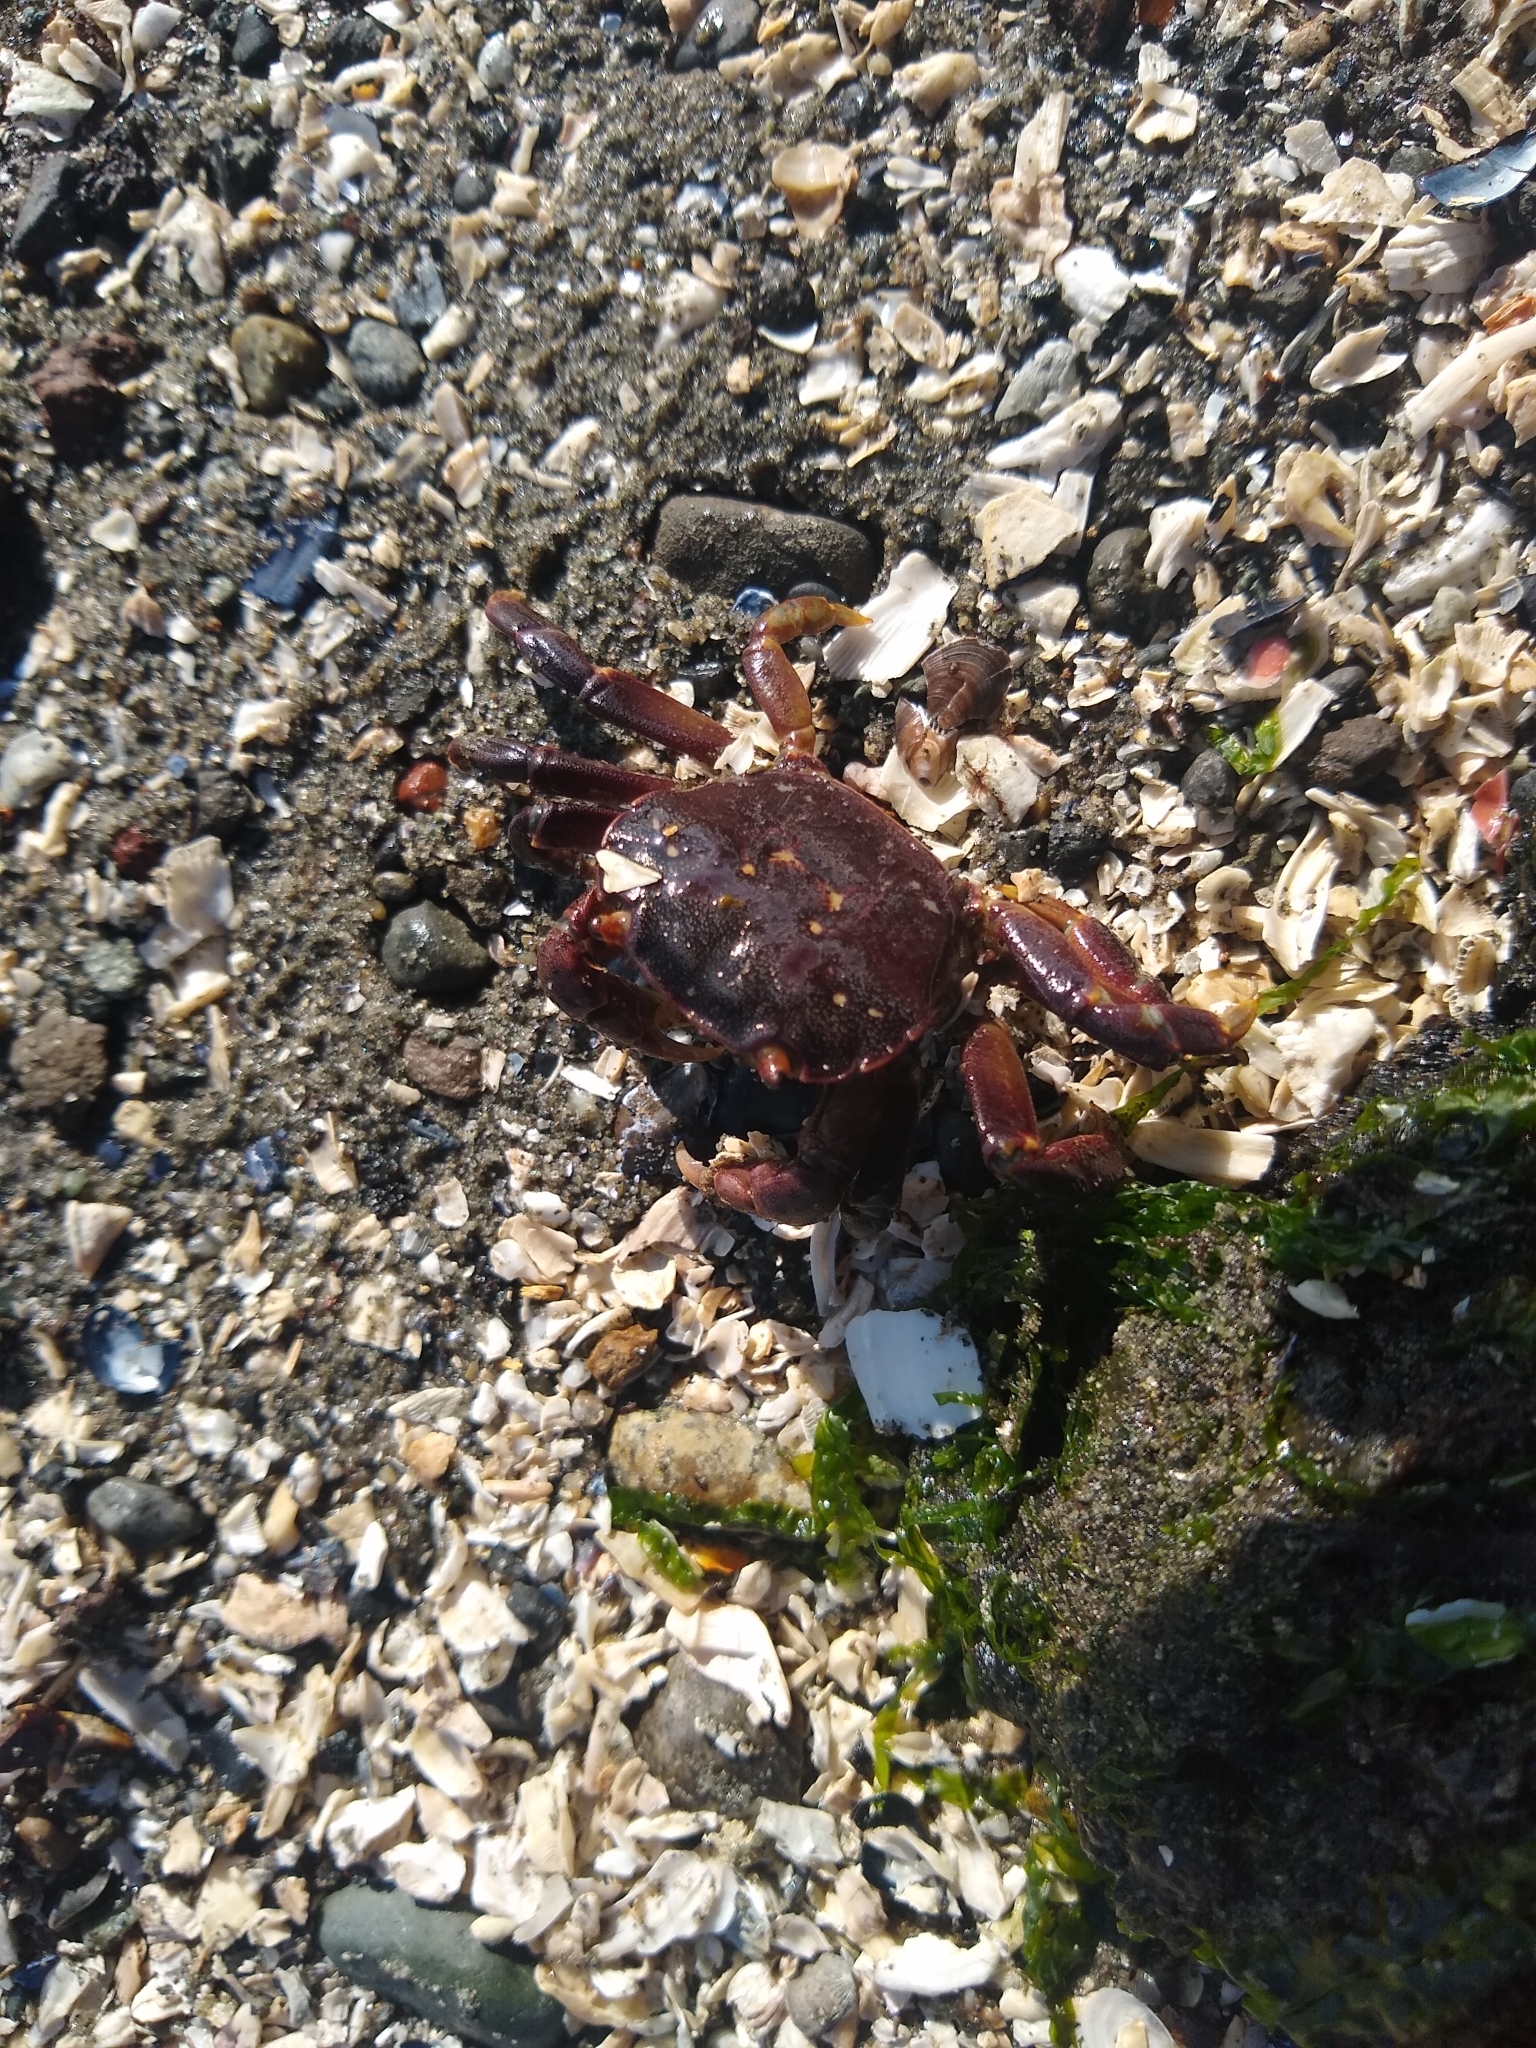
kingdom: Animalia
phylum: Arthropoda
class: Malacostraca
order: Decapoda
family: Varunidae
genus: Hemigrapsus
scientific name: Hemigrapsus nudus
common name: Purple shore crab
